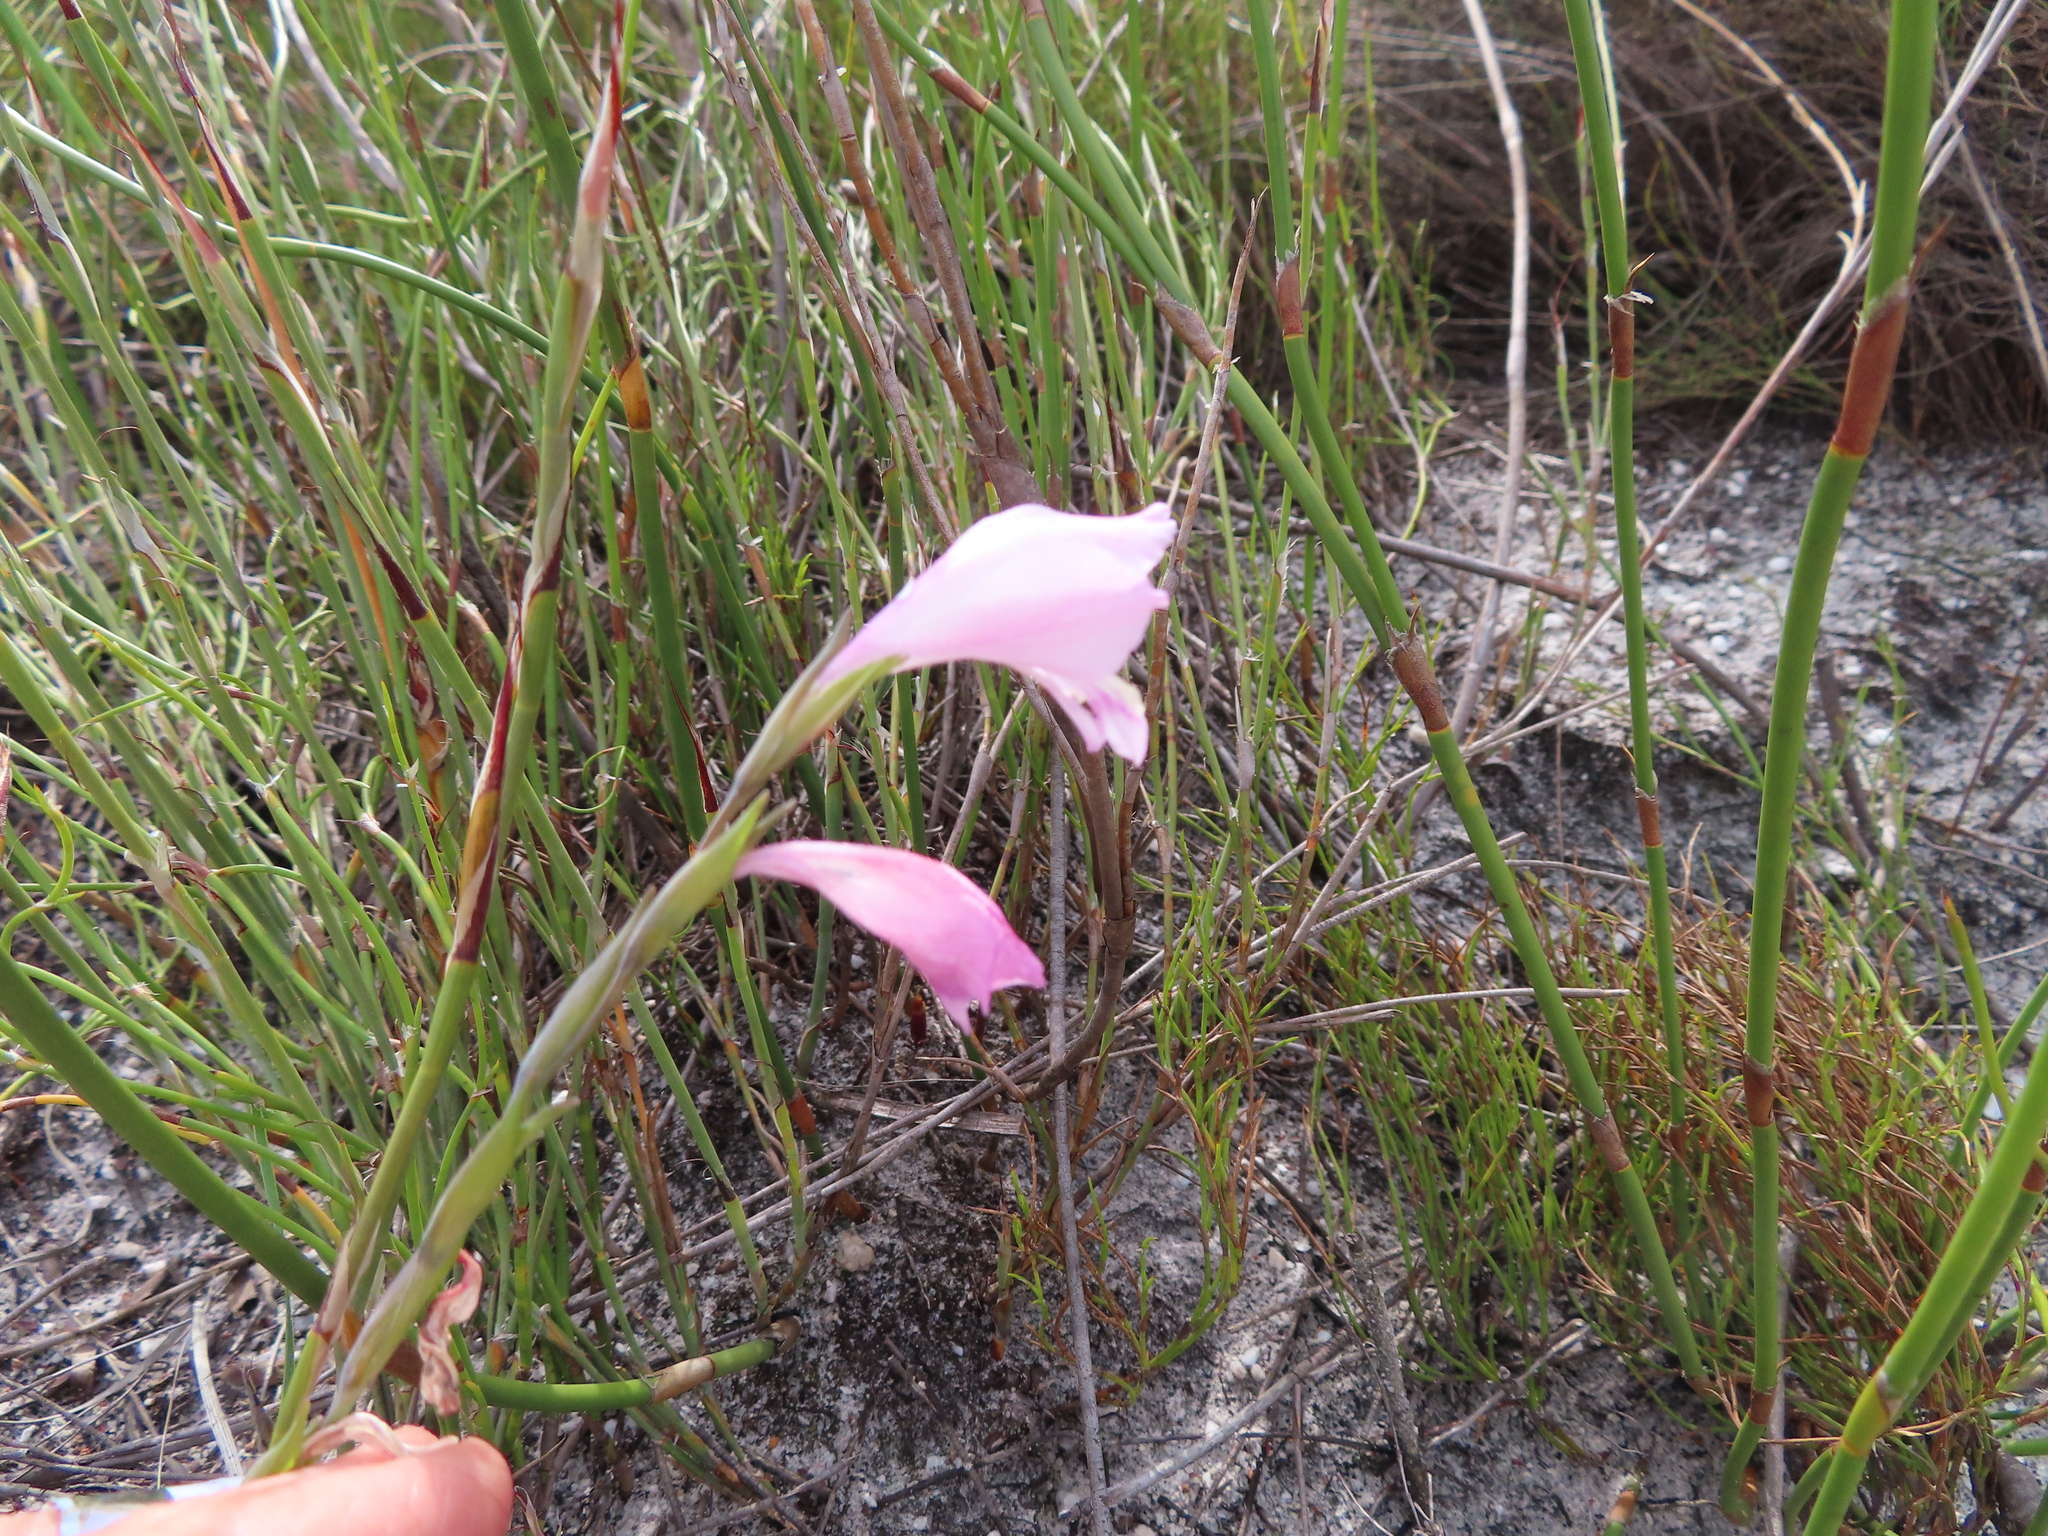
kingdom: Plantae
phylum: Tracheophyta
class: Liliopsida
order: Asparagales
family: Iridaceae
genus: Gladiolus
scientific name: Gladiolus brevifolius
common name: March pypie
